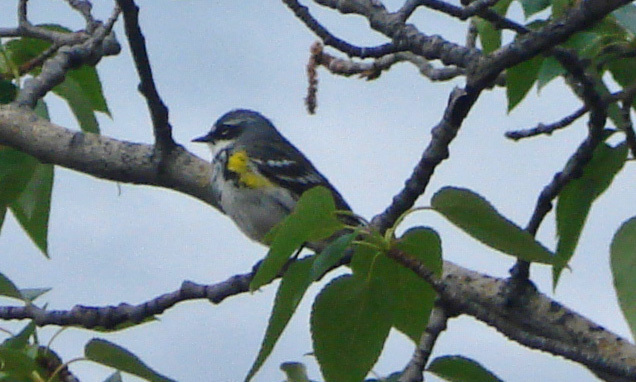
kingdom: Animalia
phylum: Chordata
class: Aves
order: Passeriformes
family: Parulidae
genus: Setophaga
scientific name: Setophaga coronata
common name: Myrtle warbler
